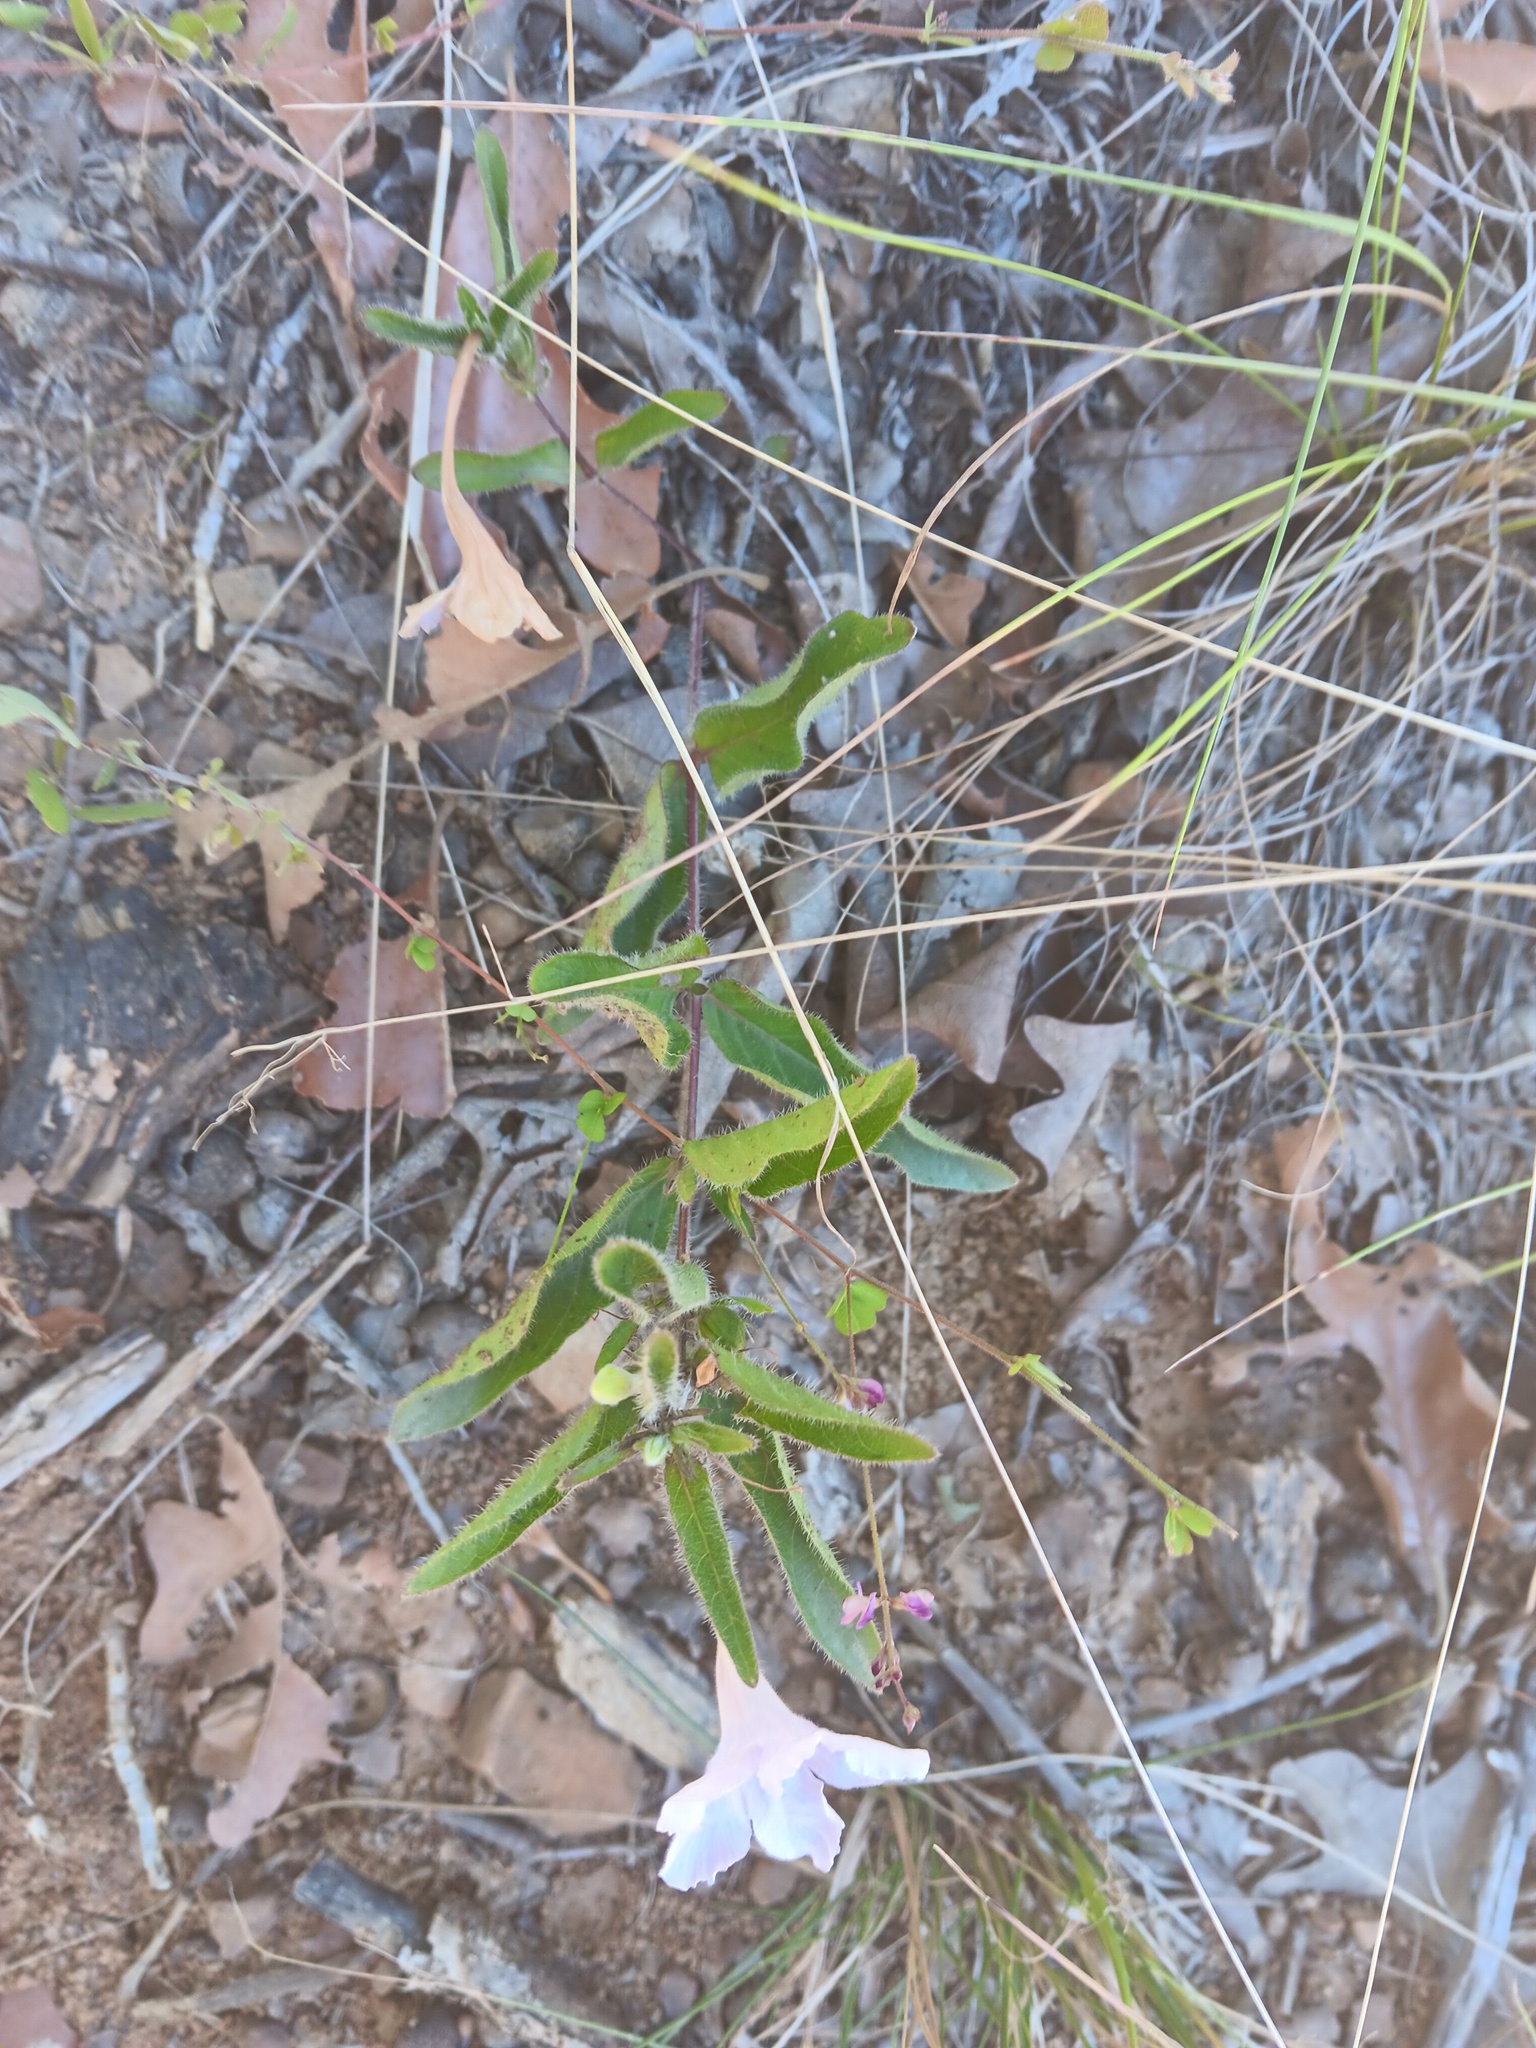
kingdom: Plantae
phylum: Tracheophyta
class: Magnoliopsida
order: Lamiales
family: Acanthaceae
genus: Ruellia
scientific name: Ruellia humilis
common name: Fringe-leaf ruellia
